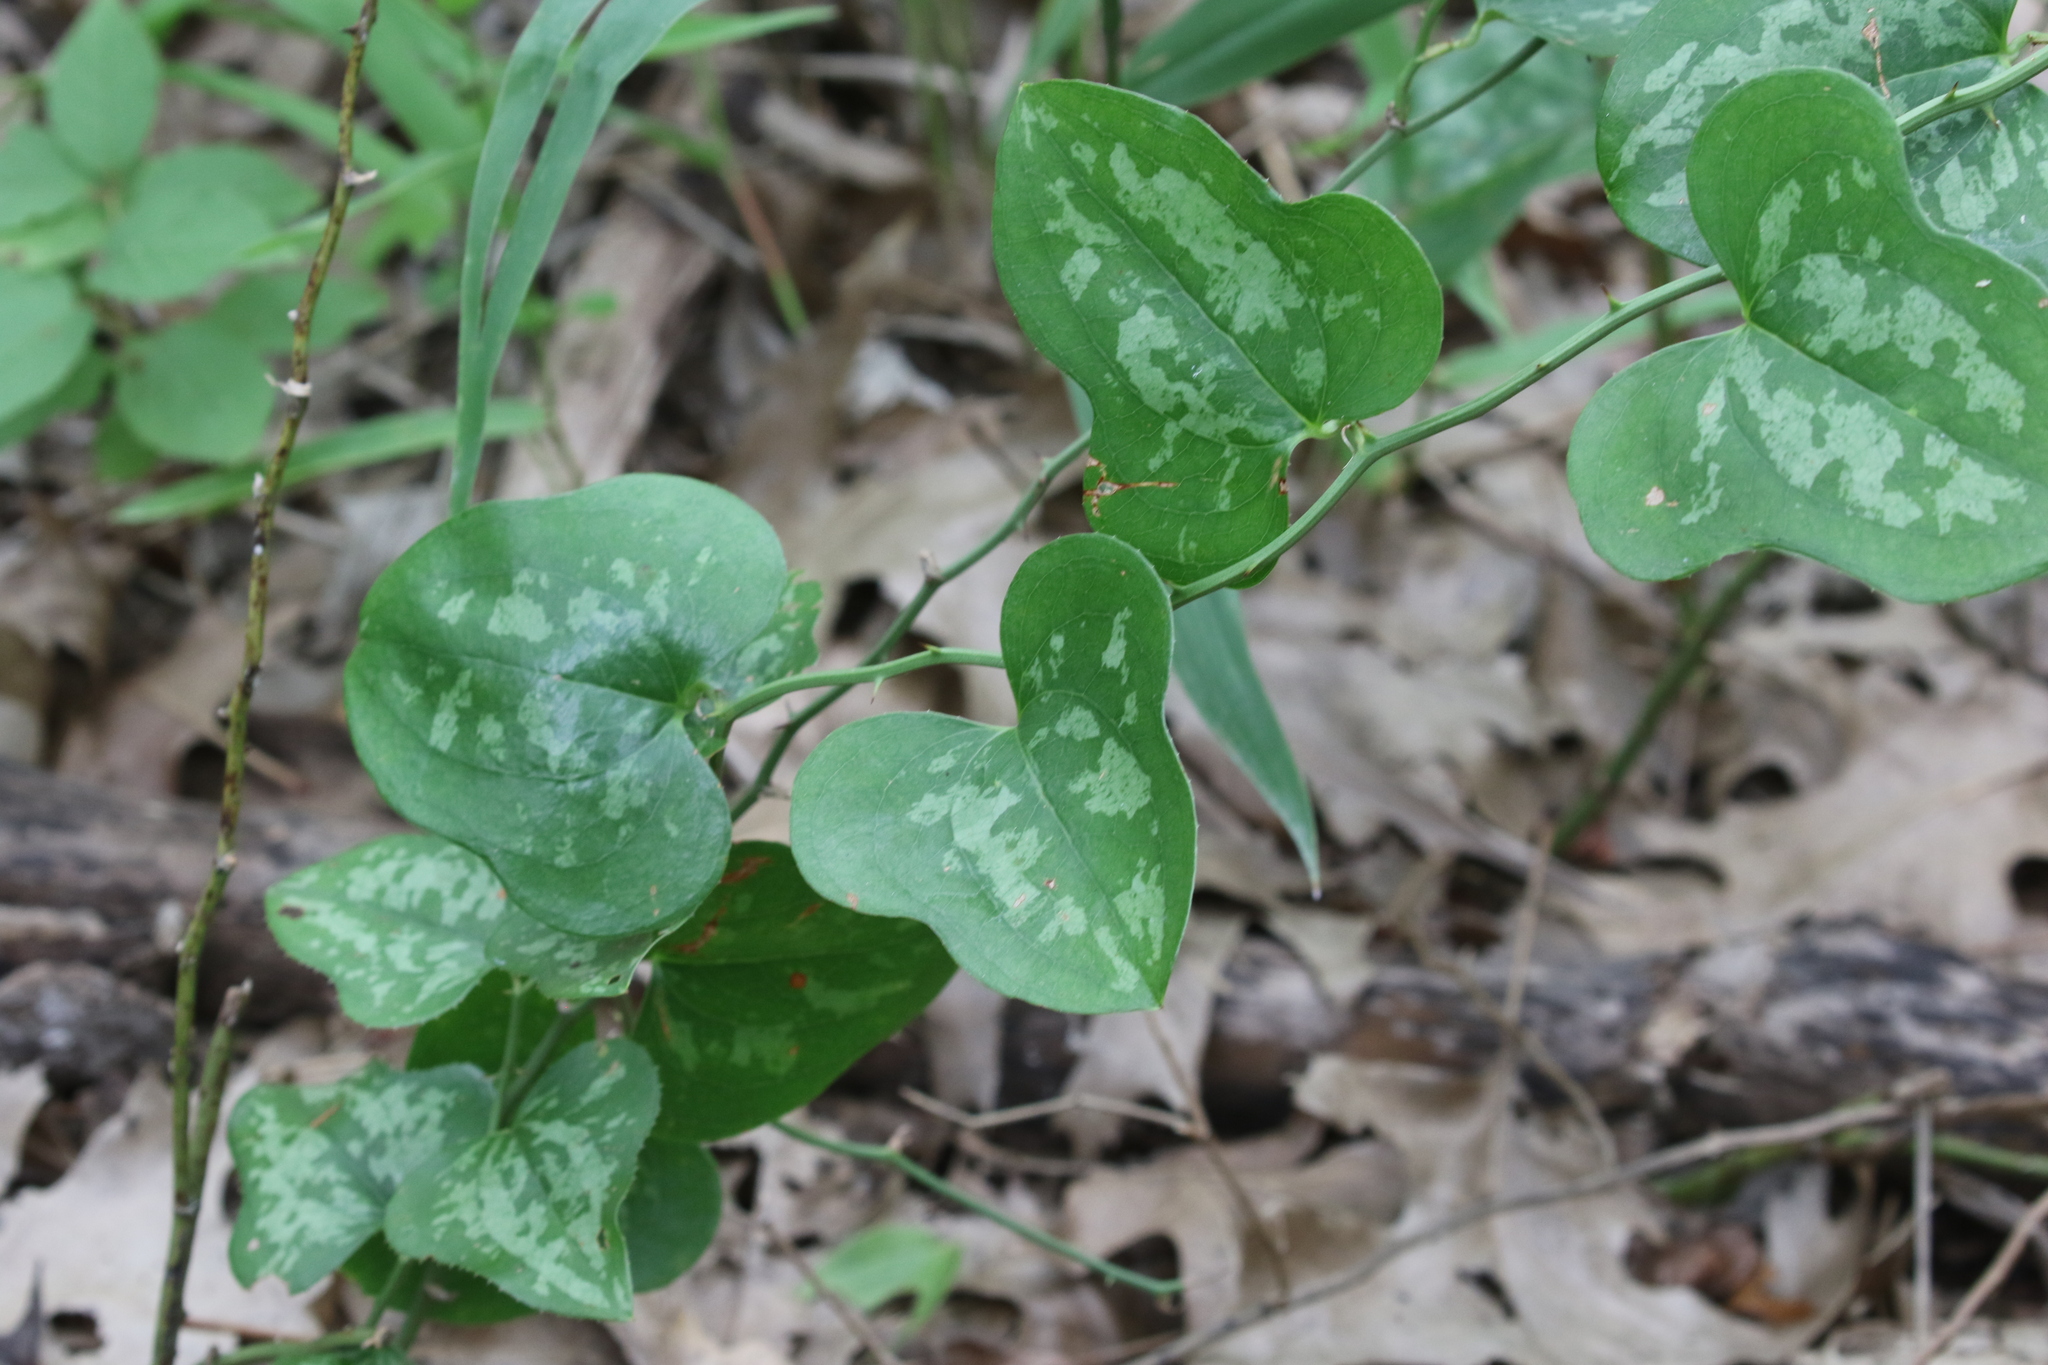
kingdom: Plantae
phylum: Tracheophyta
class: Liliopsida
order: Liliales
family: Smilacaceae
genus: Smilax
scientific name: Smilax bona-nox
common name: Catbrier
